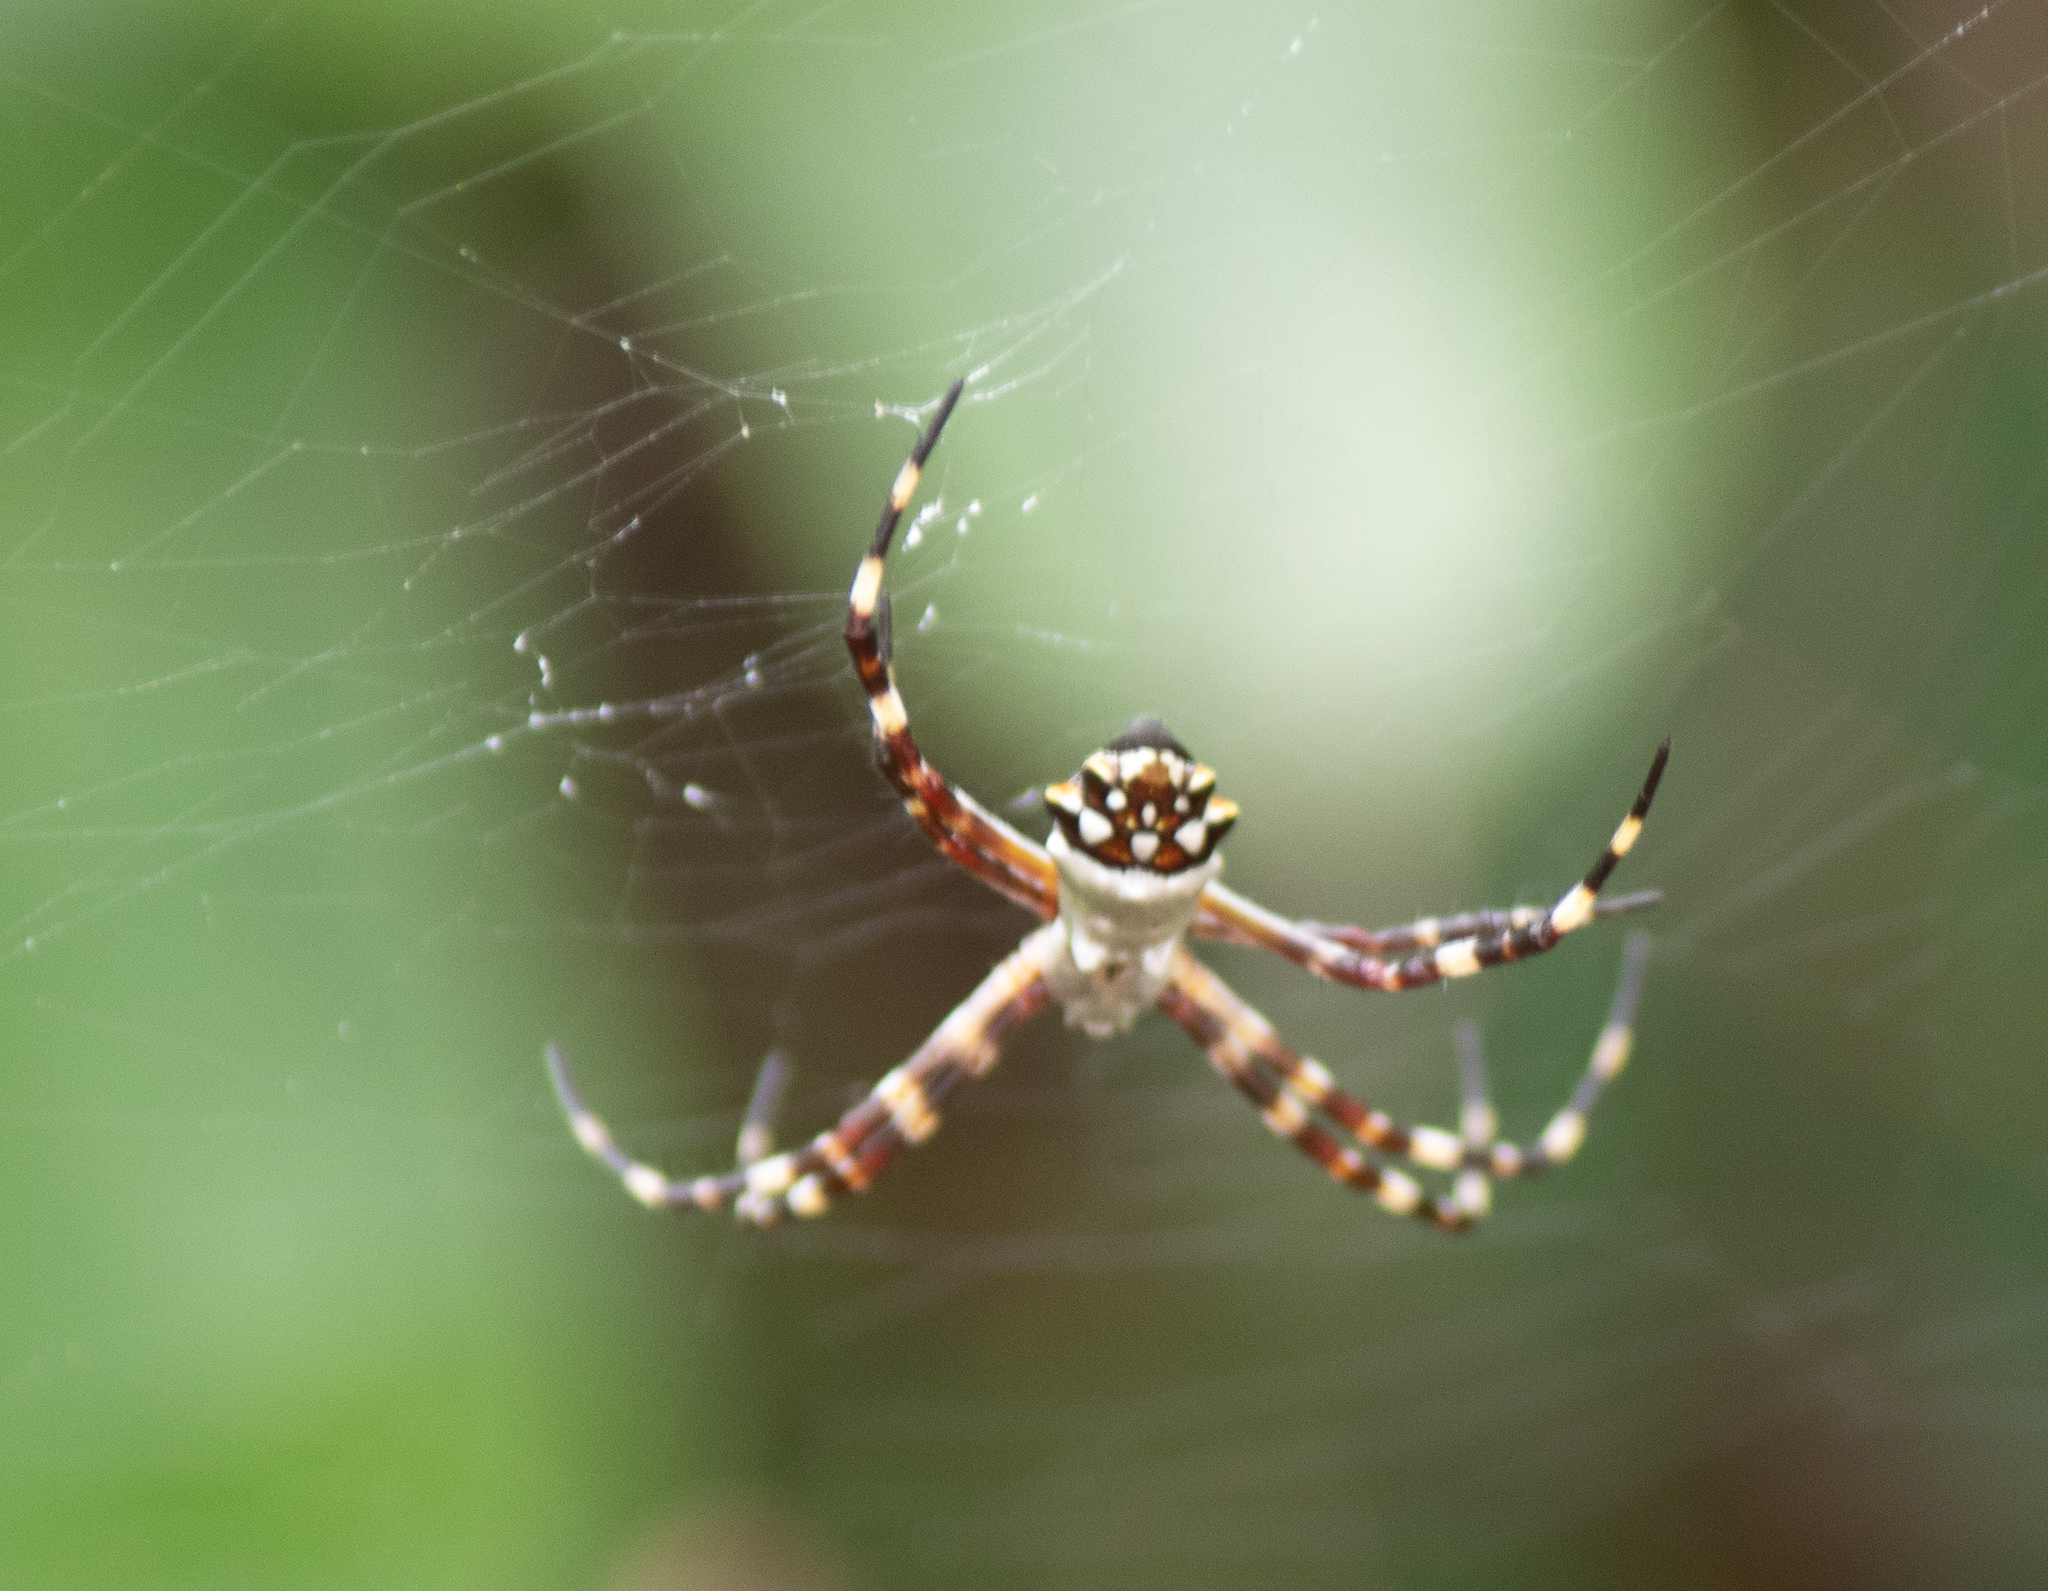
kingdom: Animalia
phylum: Arthropoda
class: Arachnida
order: Araneae
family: Araneidae
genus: Argiope
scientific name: Argiope argentata
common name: Orb weavers
